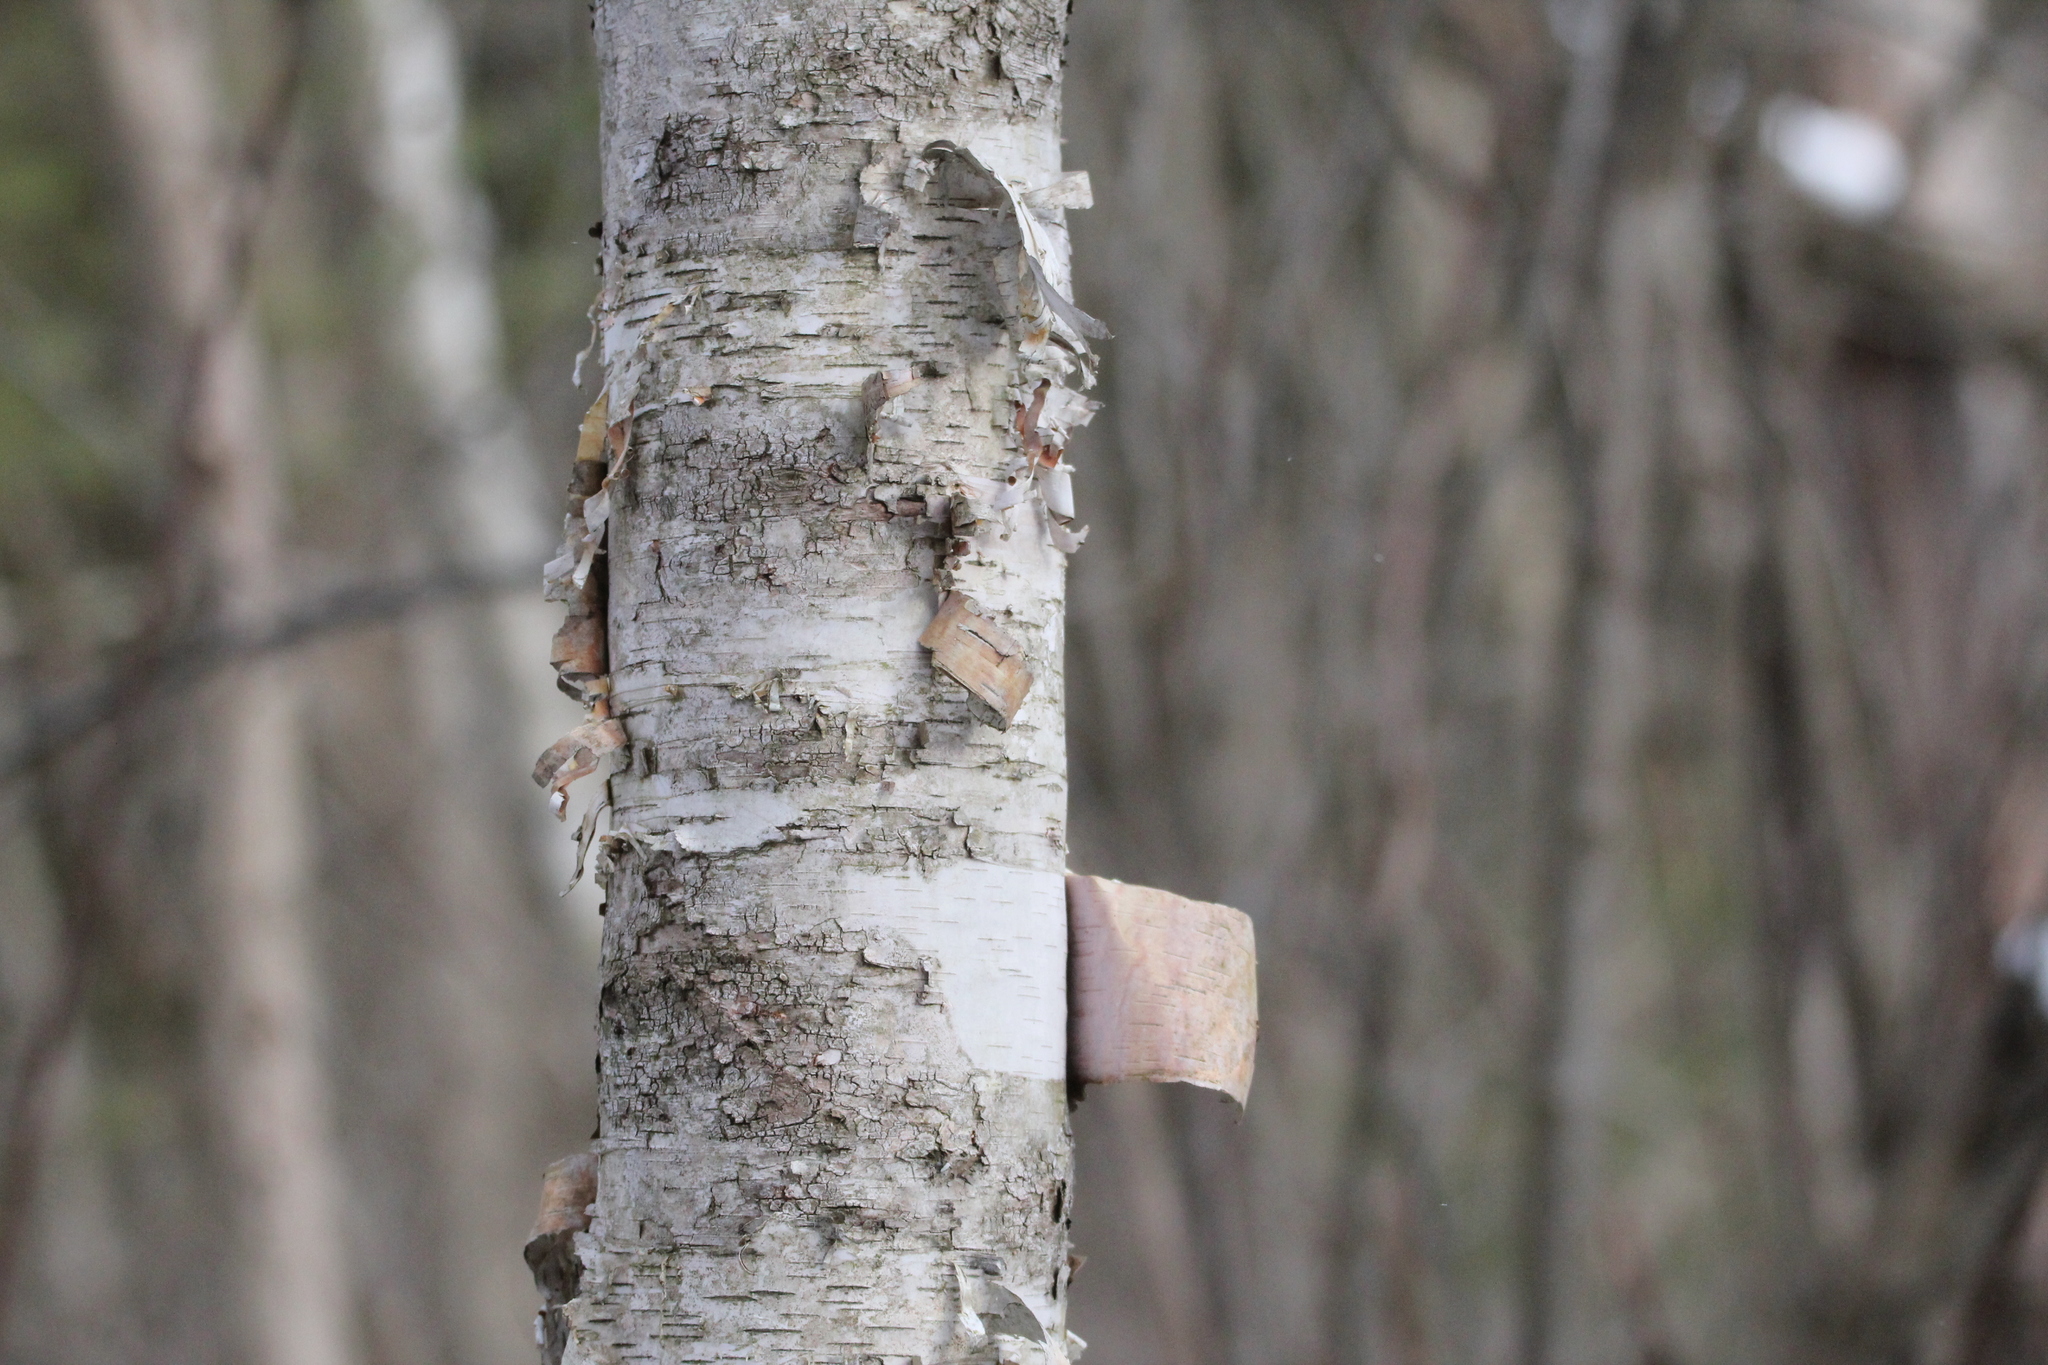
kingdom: Plantae
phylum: Tracheophyta
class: Magnoliopsida
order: Fagales
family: Betulaceae
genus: Betula
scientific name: Betula papyrifera
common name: Paper birch
